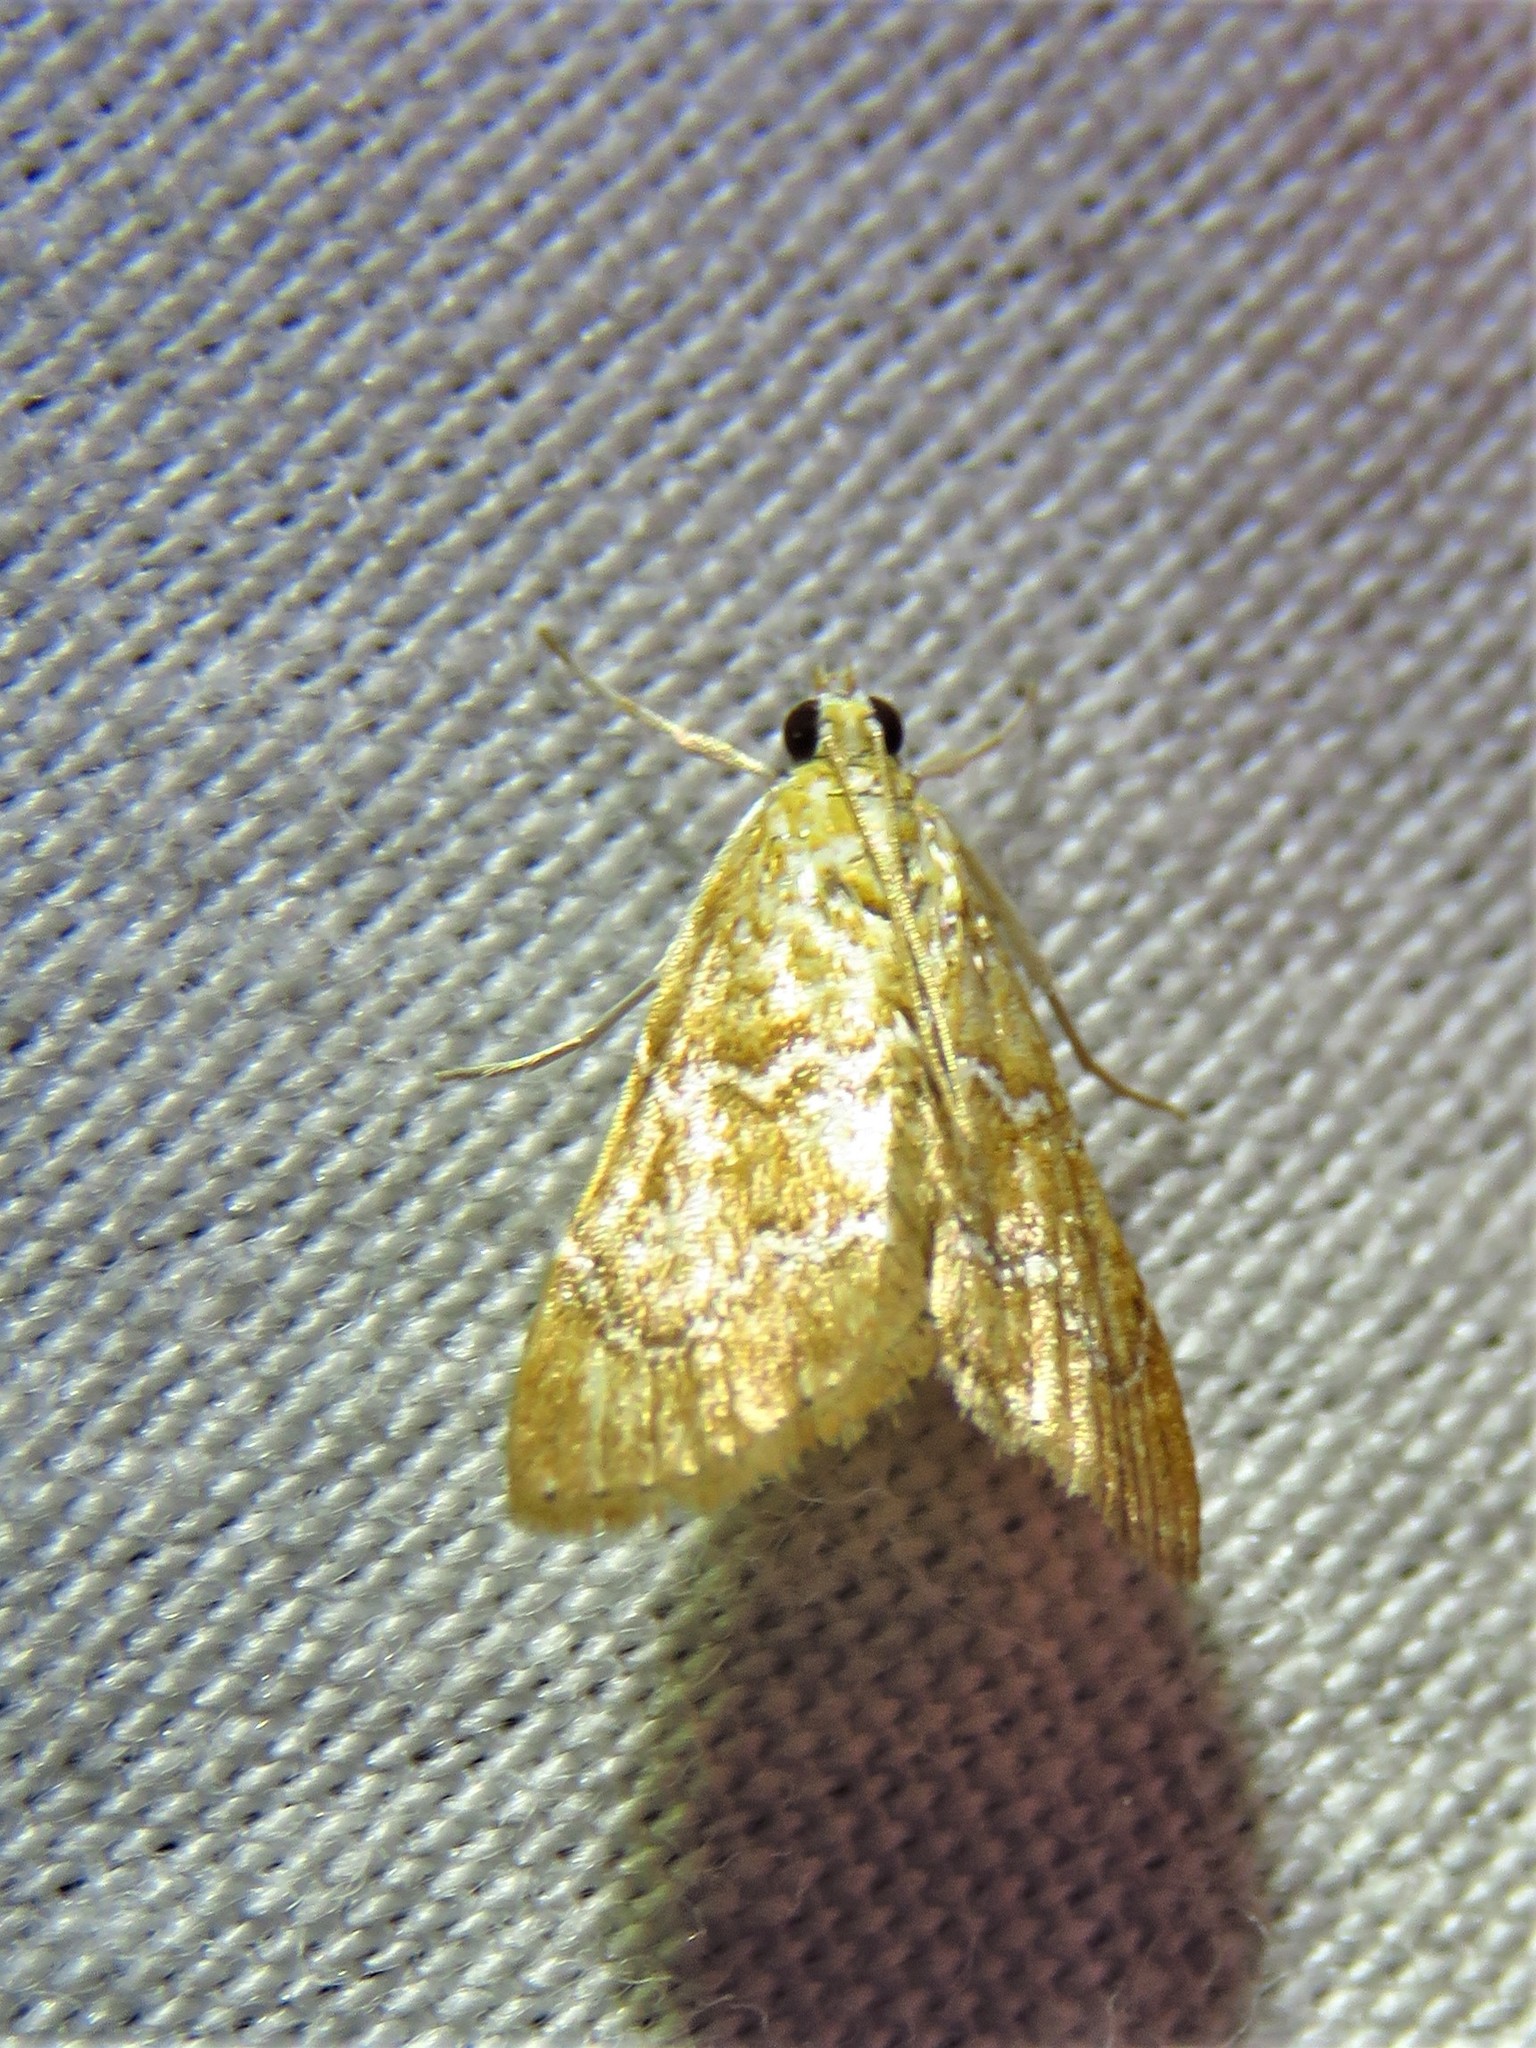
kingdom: Animalia
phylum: Arthropoda
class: Insecta
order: Lepidoptera
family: Crambidae
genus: Glaphyria
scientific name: Glaphyria sesquistrialis
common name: White-roped glaphyria
